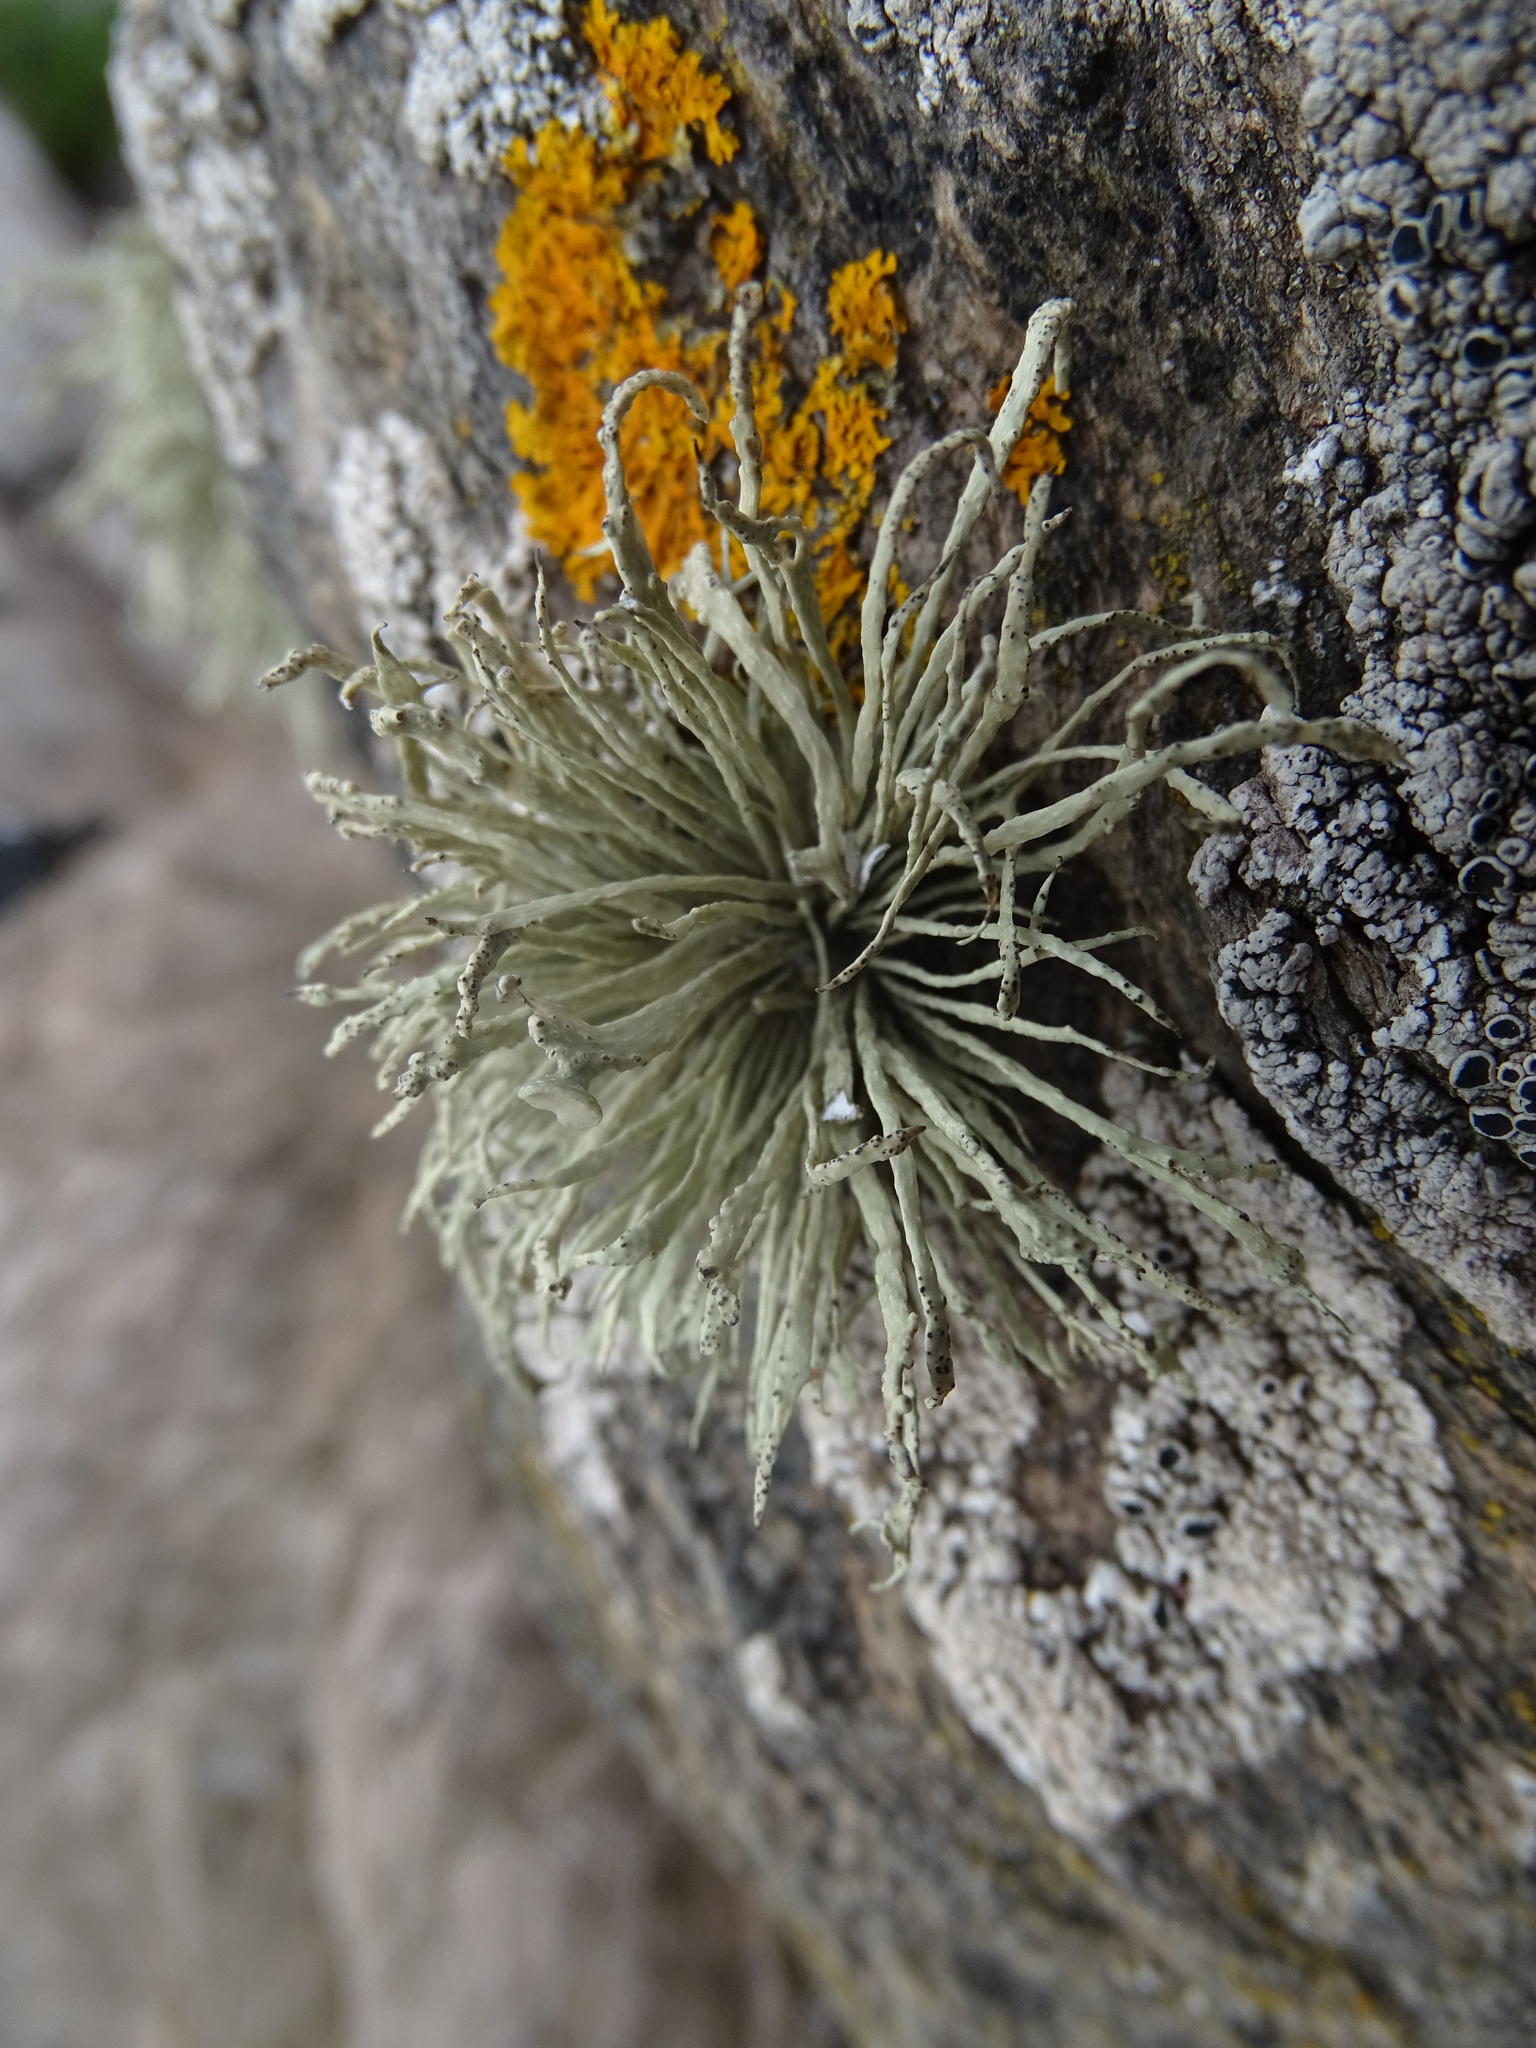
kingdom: Fungi
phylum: Ascomycota
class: Lecanoromycetes
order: Lecanorales
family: Ramalinaceae
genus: Ramalina
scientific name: Ramalina cuspidata
